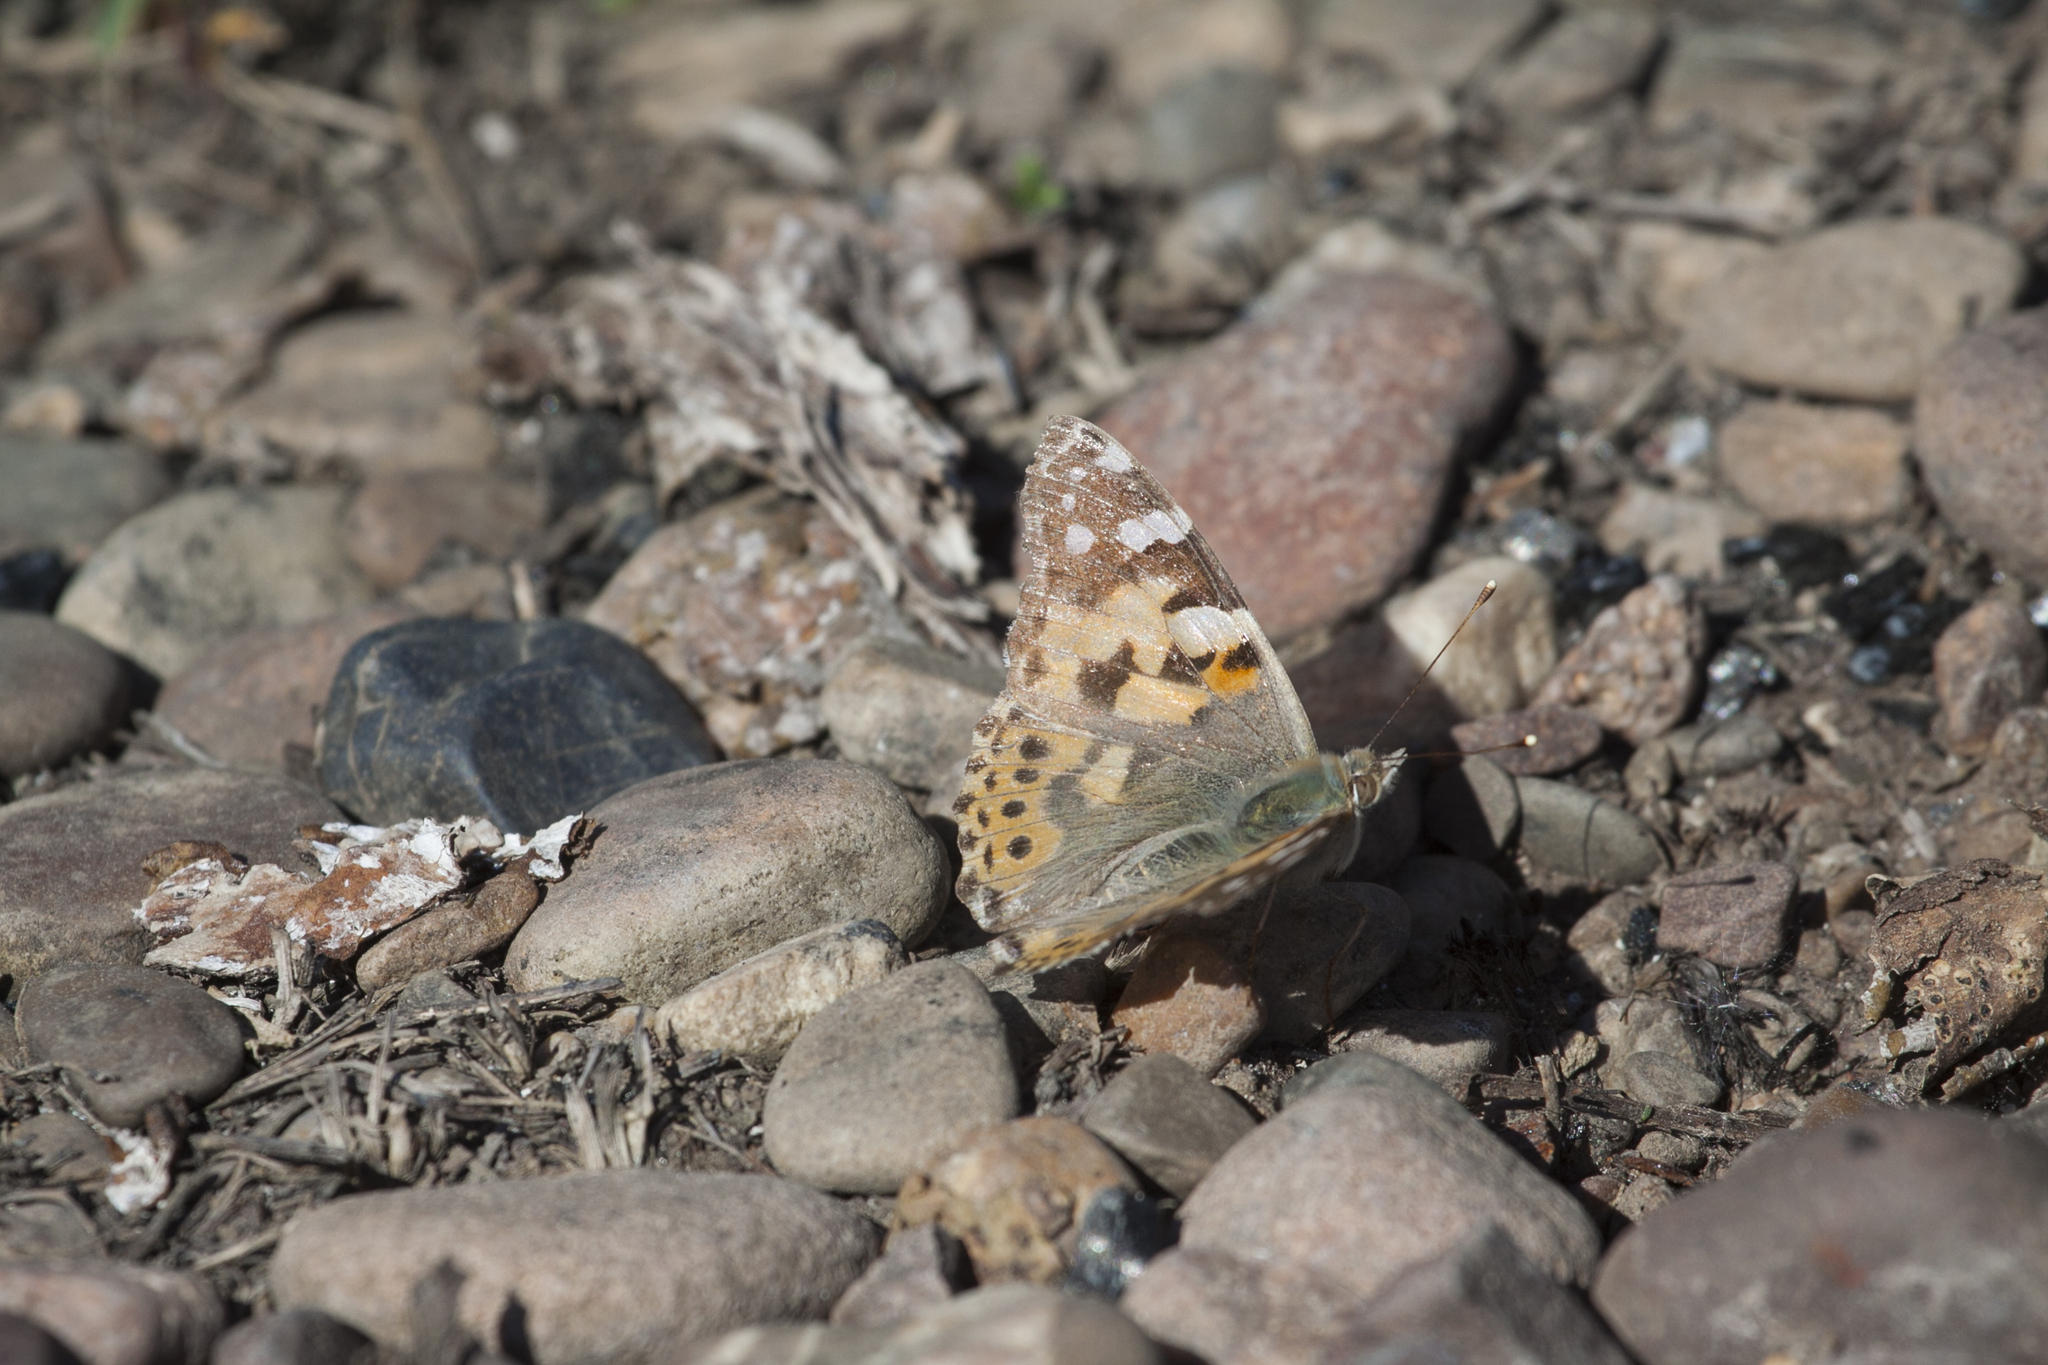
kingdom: Animalia
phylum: Arthropoda
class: Insecta
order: Lepidoptera
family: Nymphalidae
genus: Vanessa
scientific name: Vanessa cardui
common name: Painted lady
